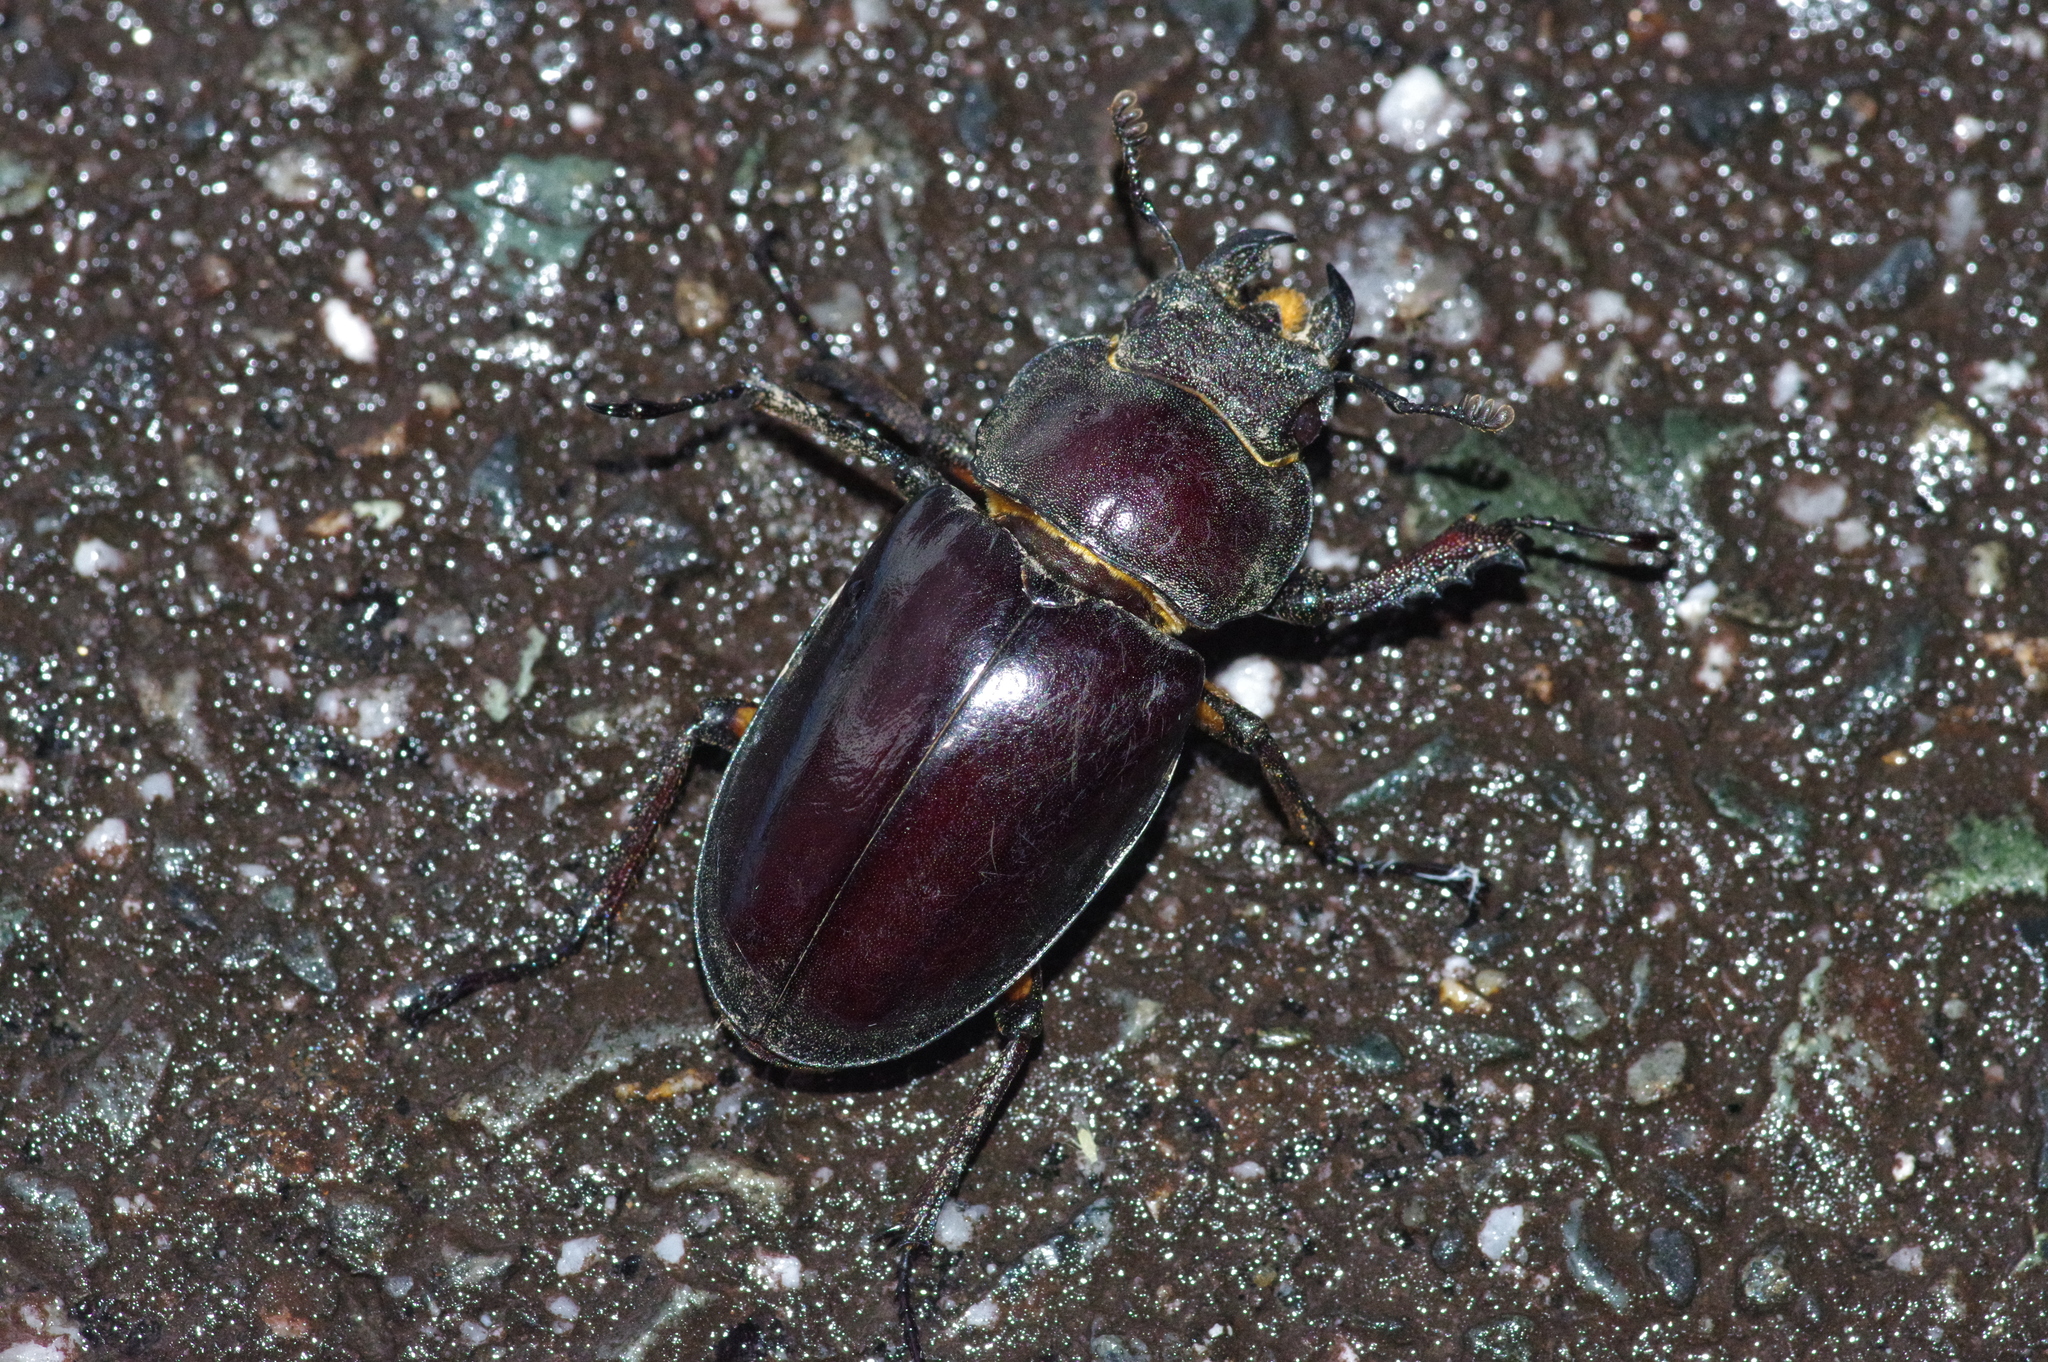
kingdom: Animalia
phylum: Arthropoda
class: Insecta
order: Coleoptera
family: Lucanidae
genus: Lucanus
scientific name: Lucanus maculifemoratus
